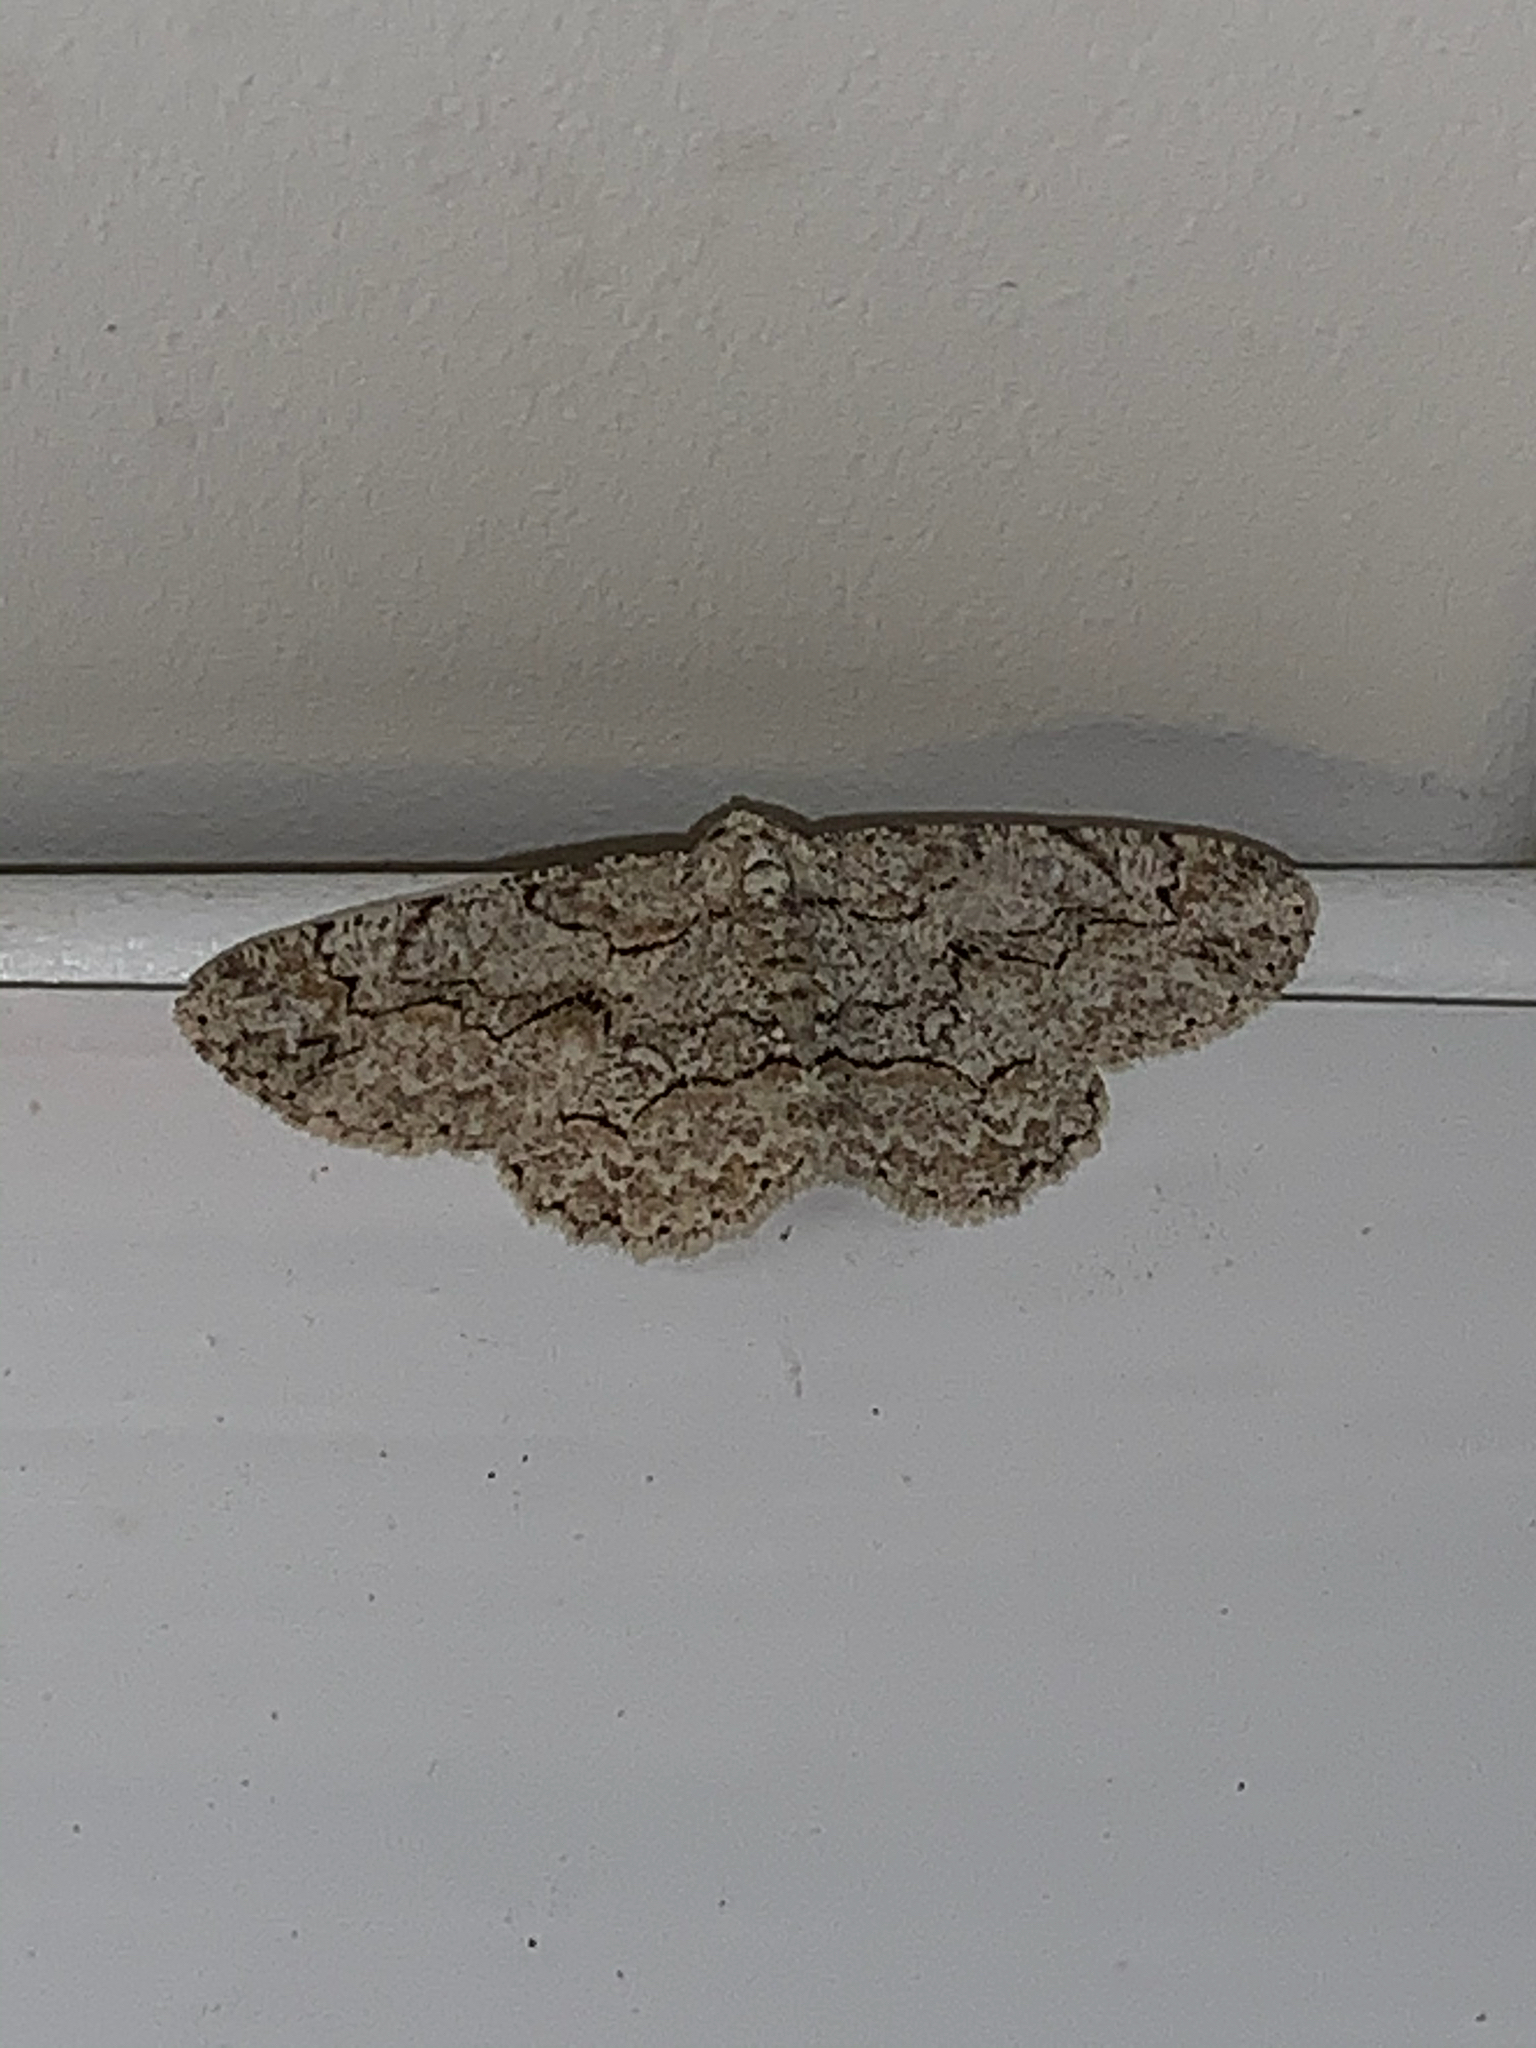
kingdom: Animalia
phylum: Arthropoda
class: Insecta
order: Lepidoptera
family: Geometridae
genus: Iridopsis
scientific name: Iridopsis defectaria
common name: Brown-shaded gray
